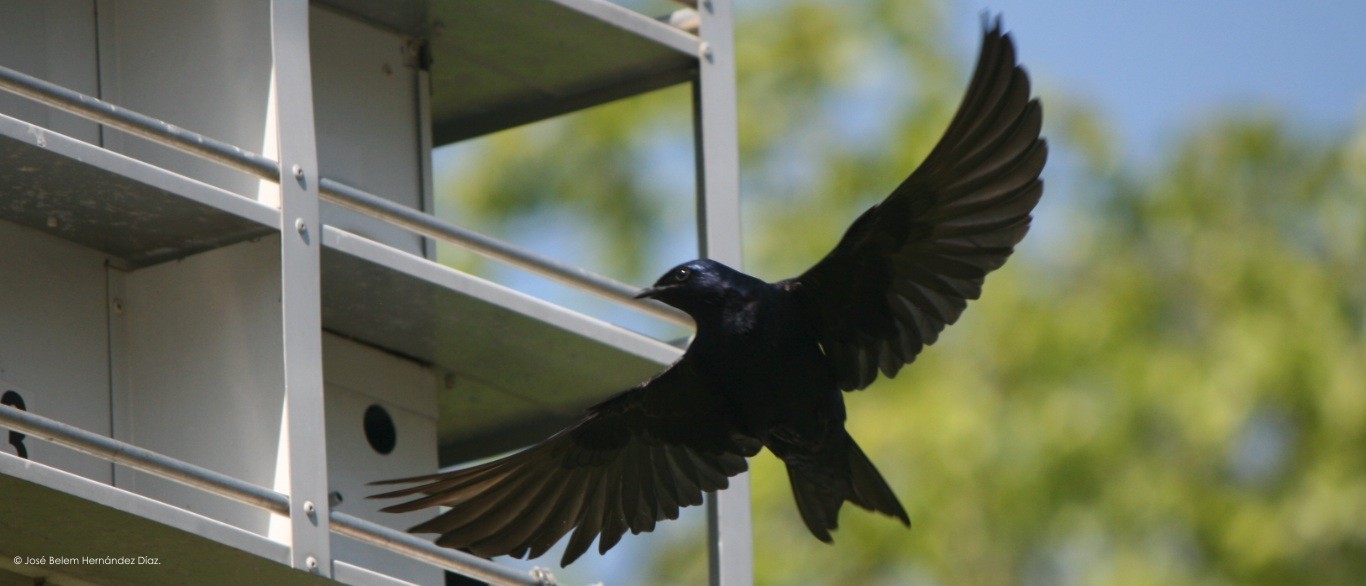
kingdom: Animalia
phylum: Chordata
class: Aves
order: Passeriformes
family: Hirundinidae
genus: Progne
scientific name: Progne subis
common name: Purple martin
